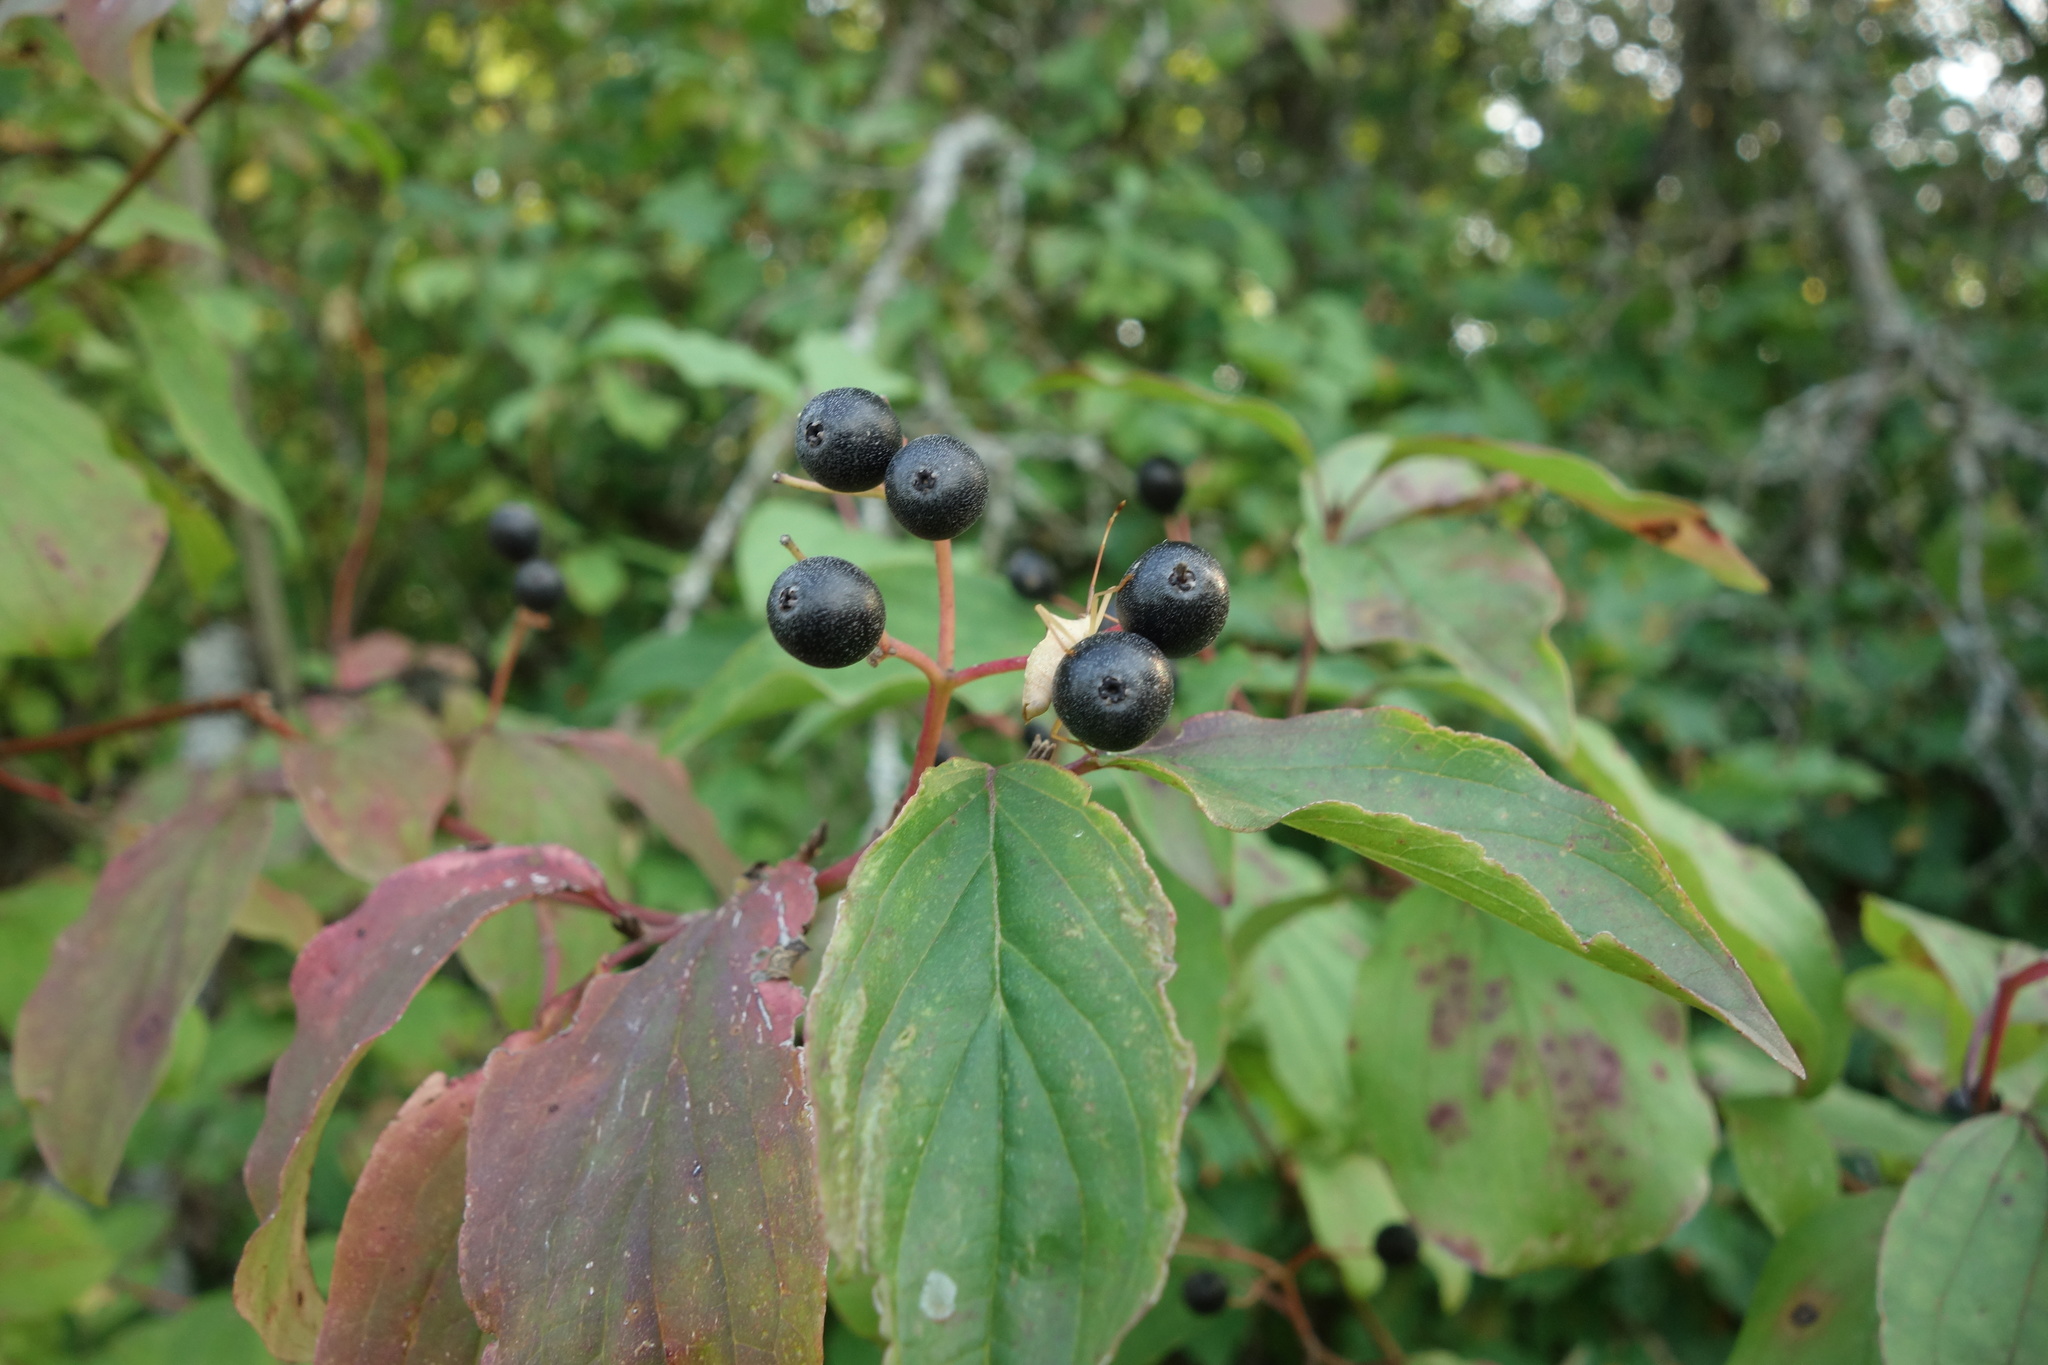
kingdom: Plantae
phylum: Tracheophyta
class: Magnoliopsida
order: Cornales
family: Cornaceae
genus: Cornus
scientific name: Cornus sanguinea
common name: Dogwood
